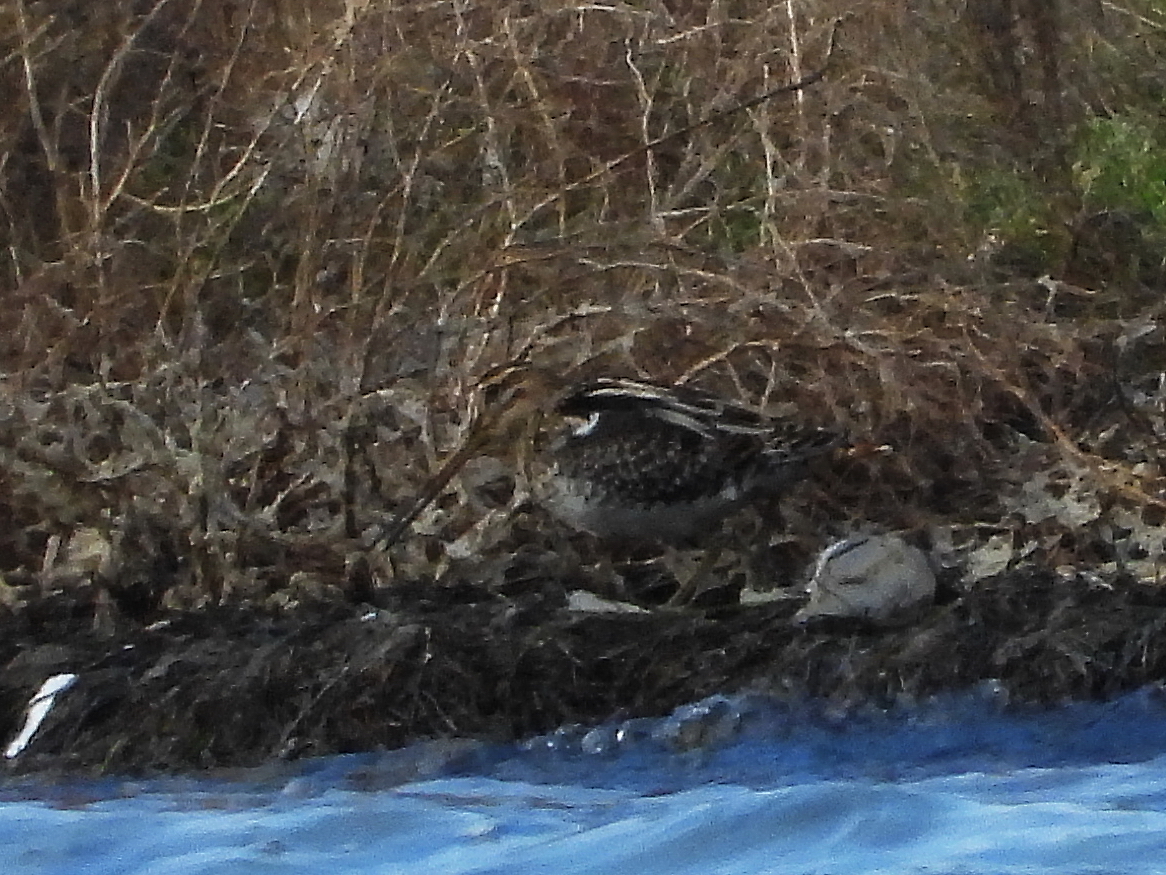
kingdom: Animalia
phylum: Chordata
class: Aves
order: Charadriiformes
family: Scolopacidae
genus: Gallinago
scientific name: Gallinago gallinago
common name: Common snipe
